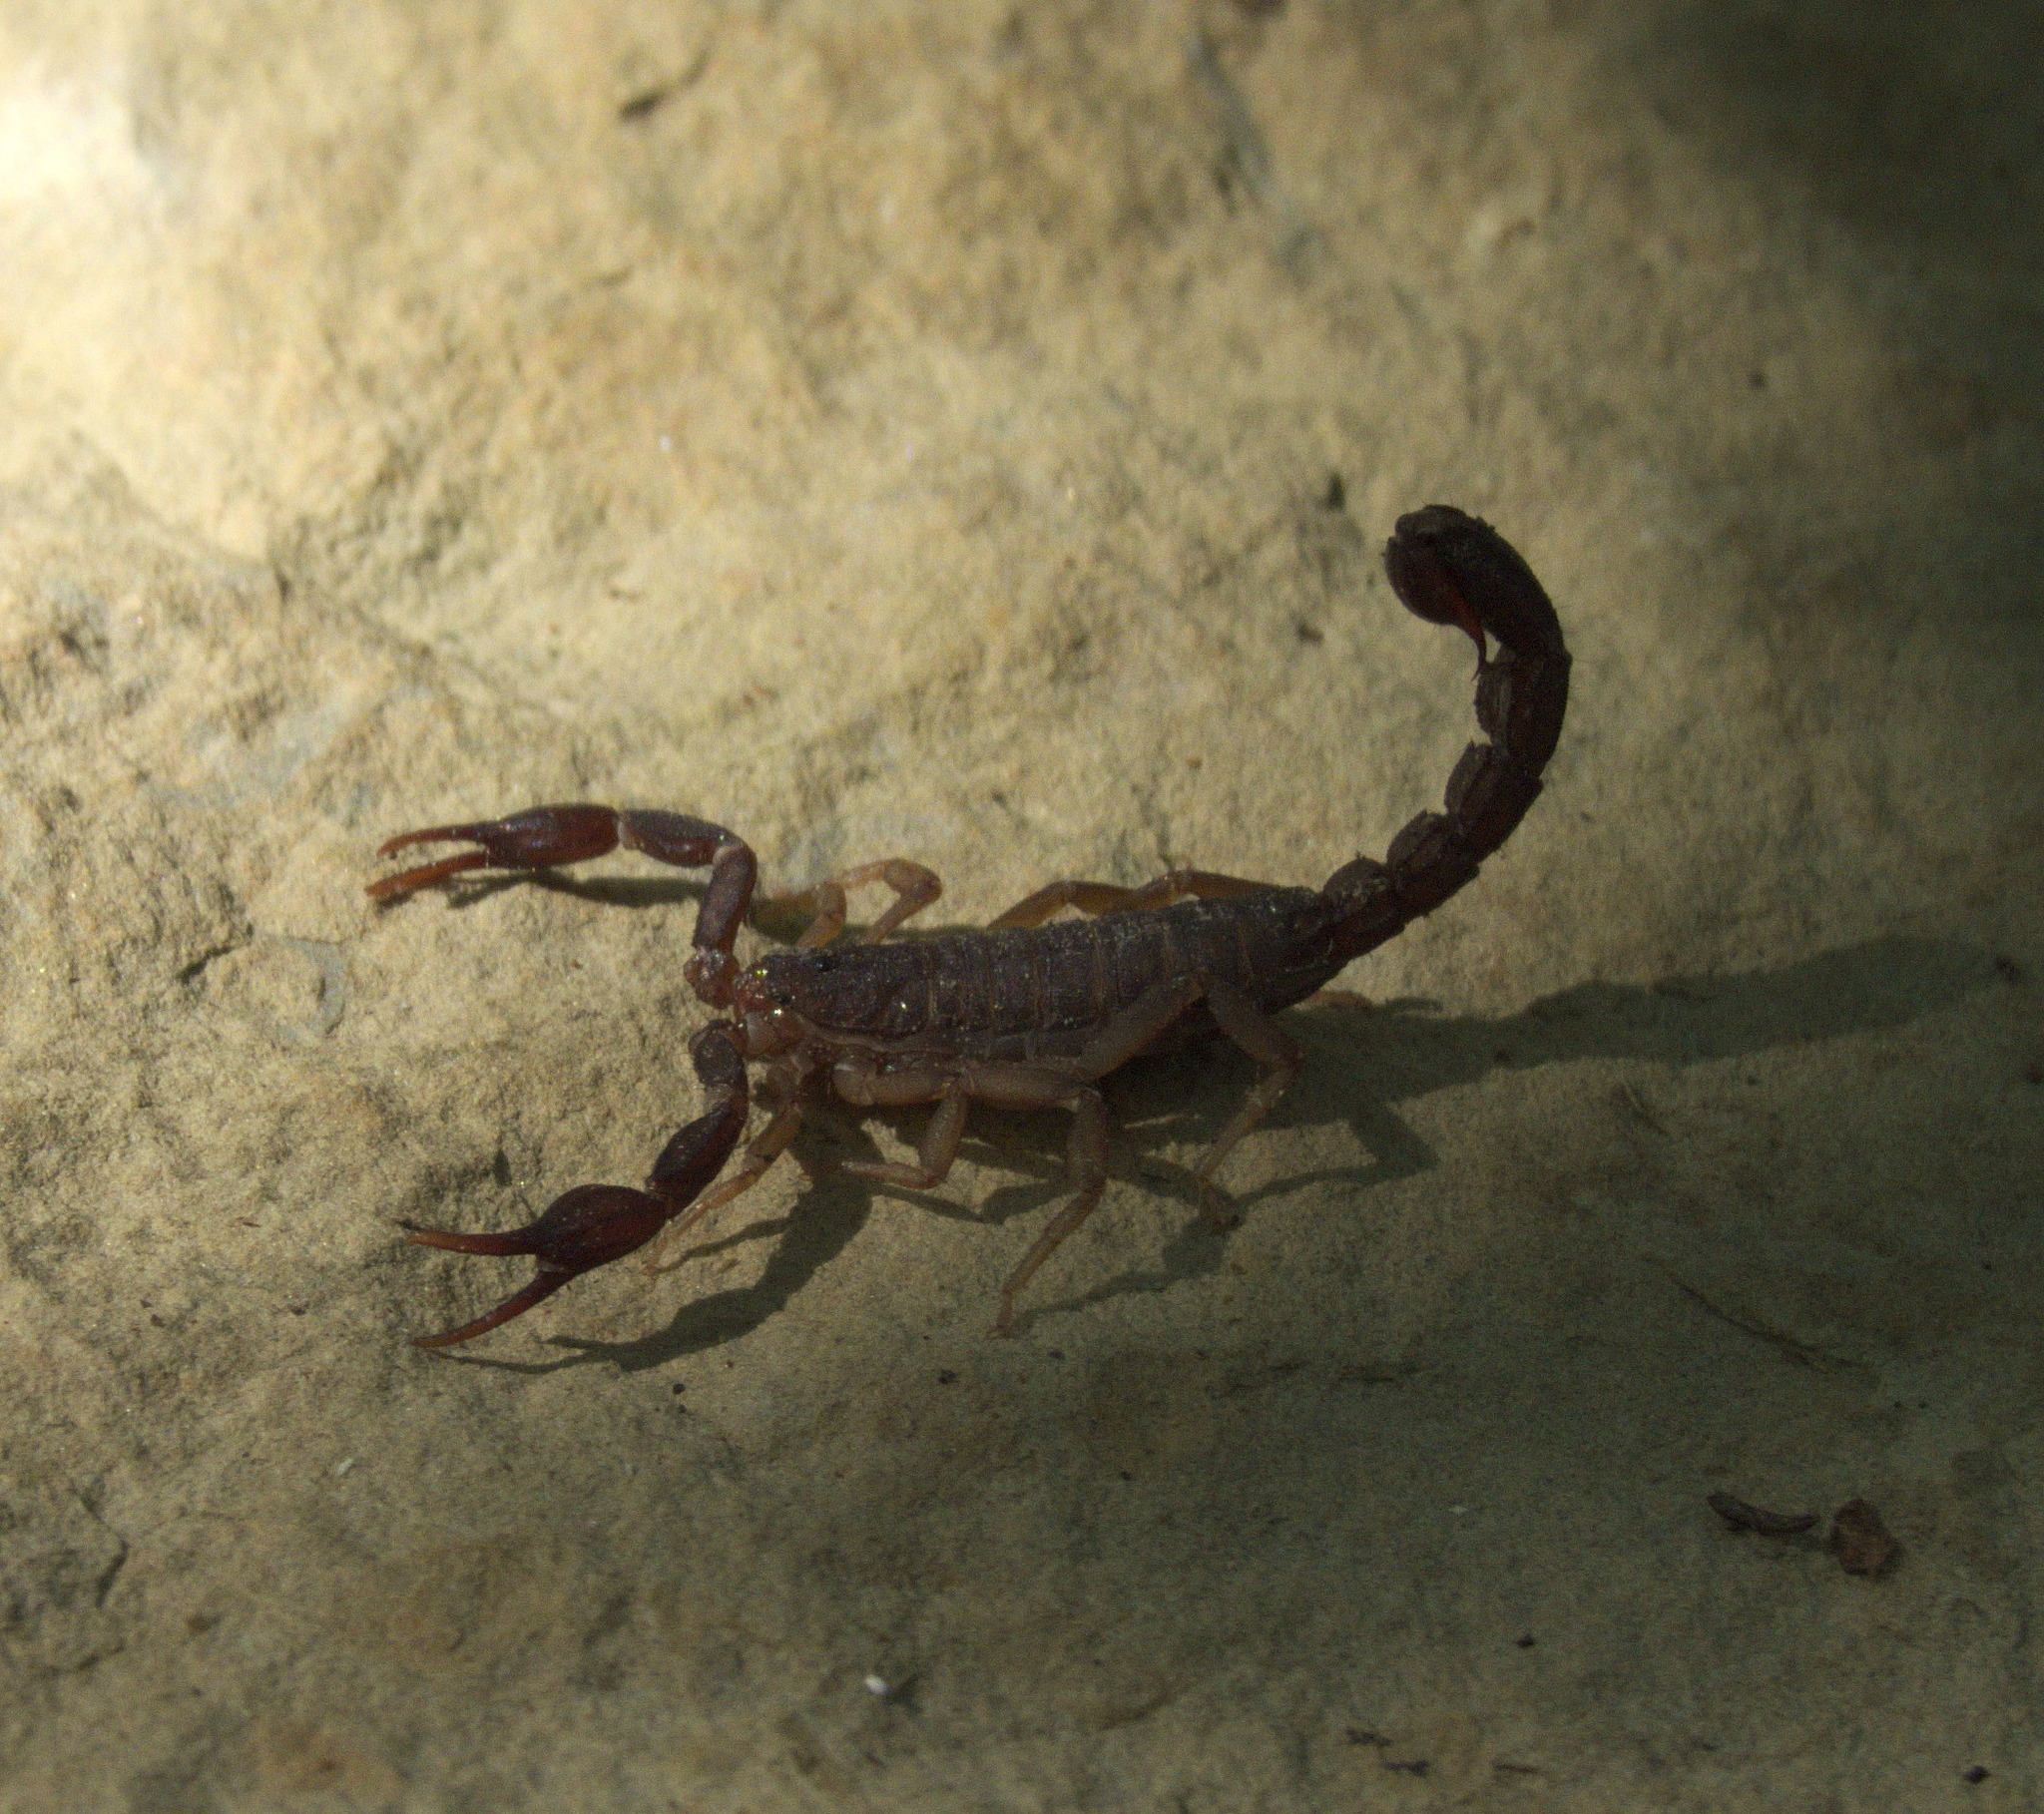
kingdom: Animalia
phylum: Arthropoda
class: Arachnida
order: Scorpiones
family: Vaejovidae
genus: Vaejovis
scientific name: Vaejovis carolinianus
